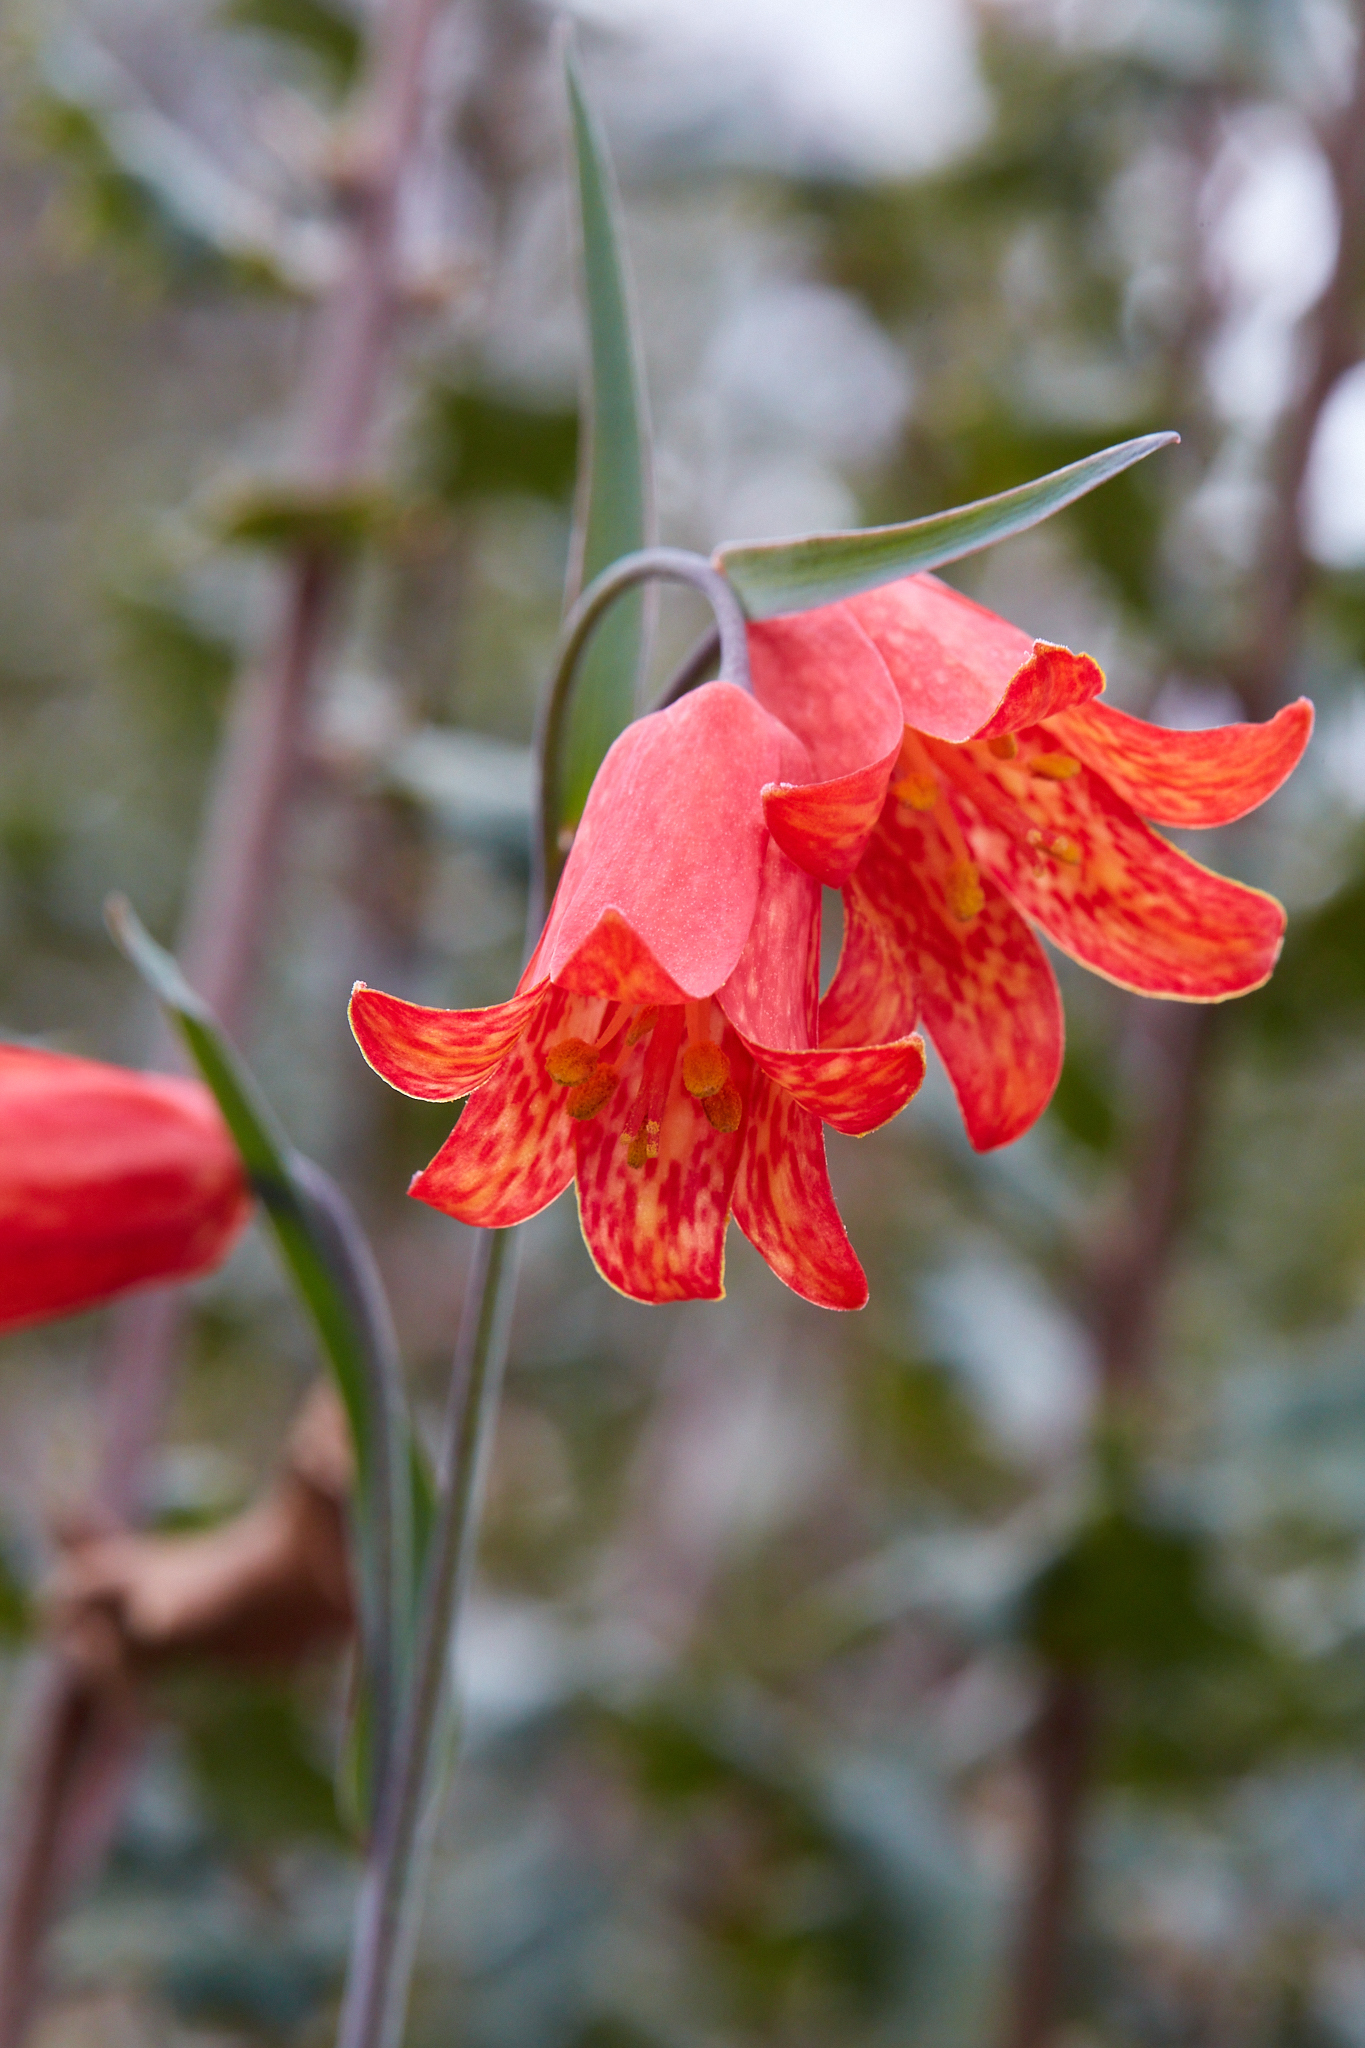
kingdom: Plantae
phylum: Tracheophyta
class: Liliopsida
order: Liliales
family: Liliaceae
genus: Fritillaria
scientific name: Fritillaria recurva
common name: Scarlet fritillary
